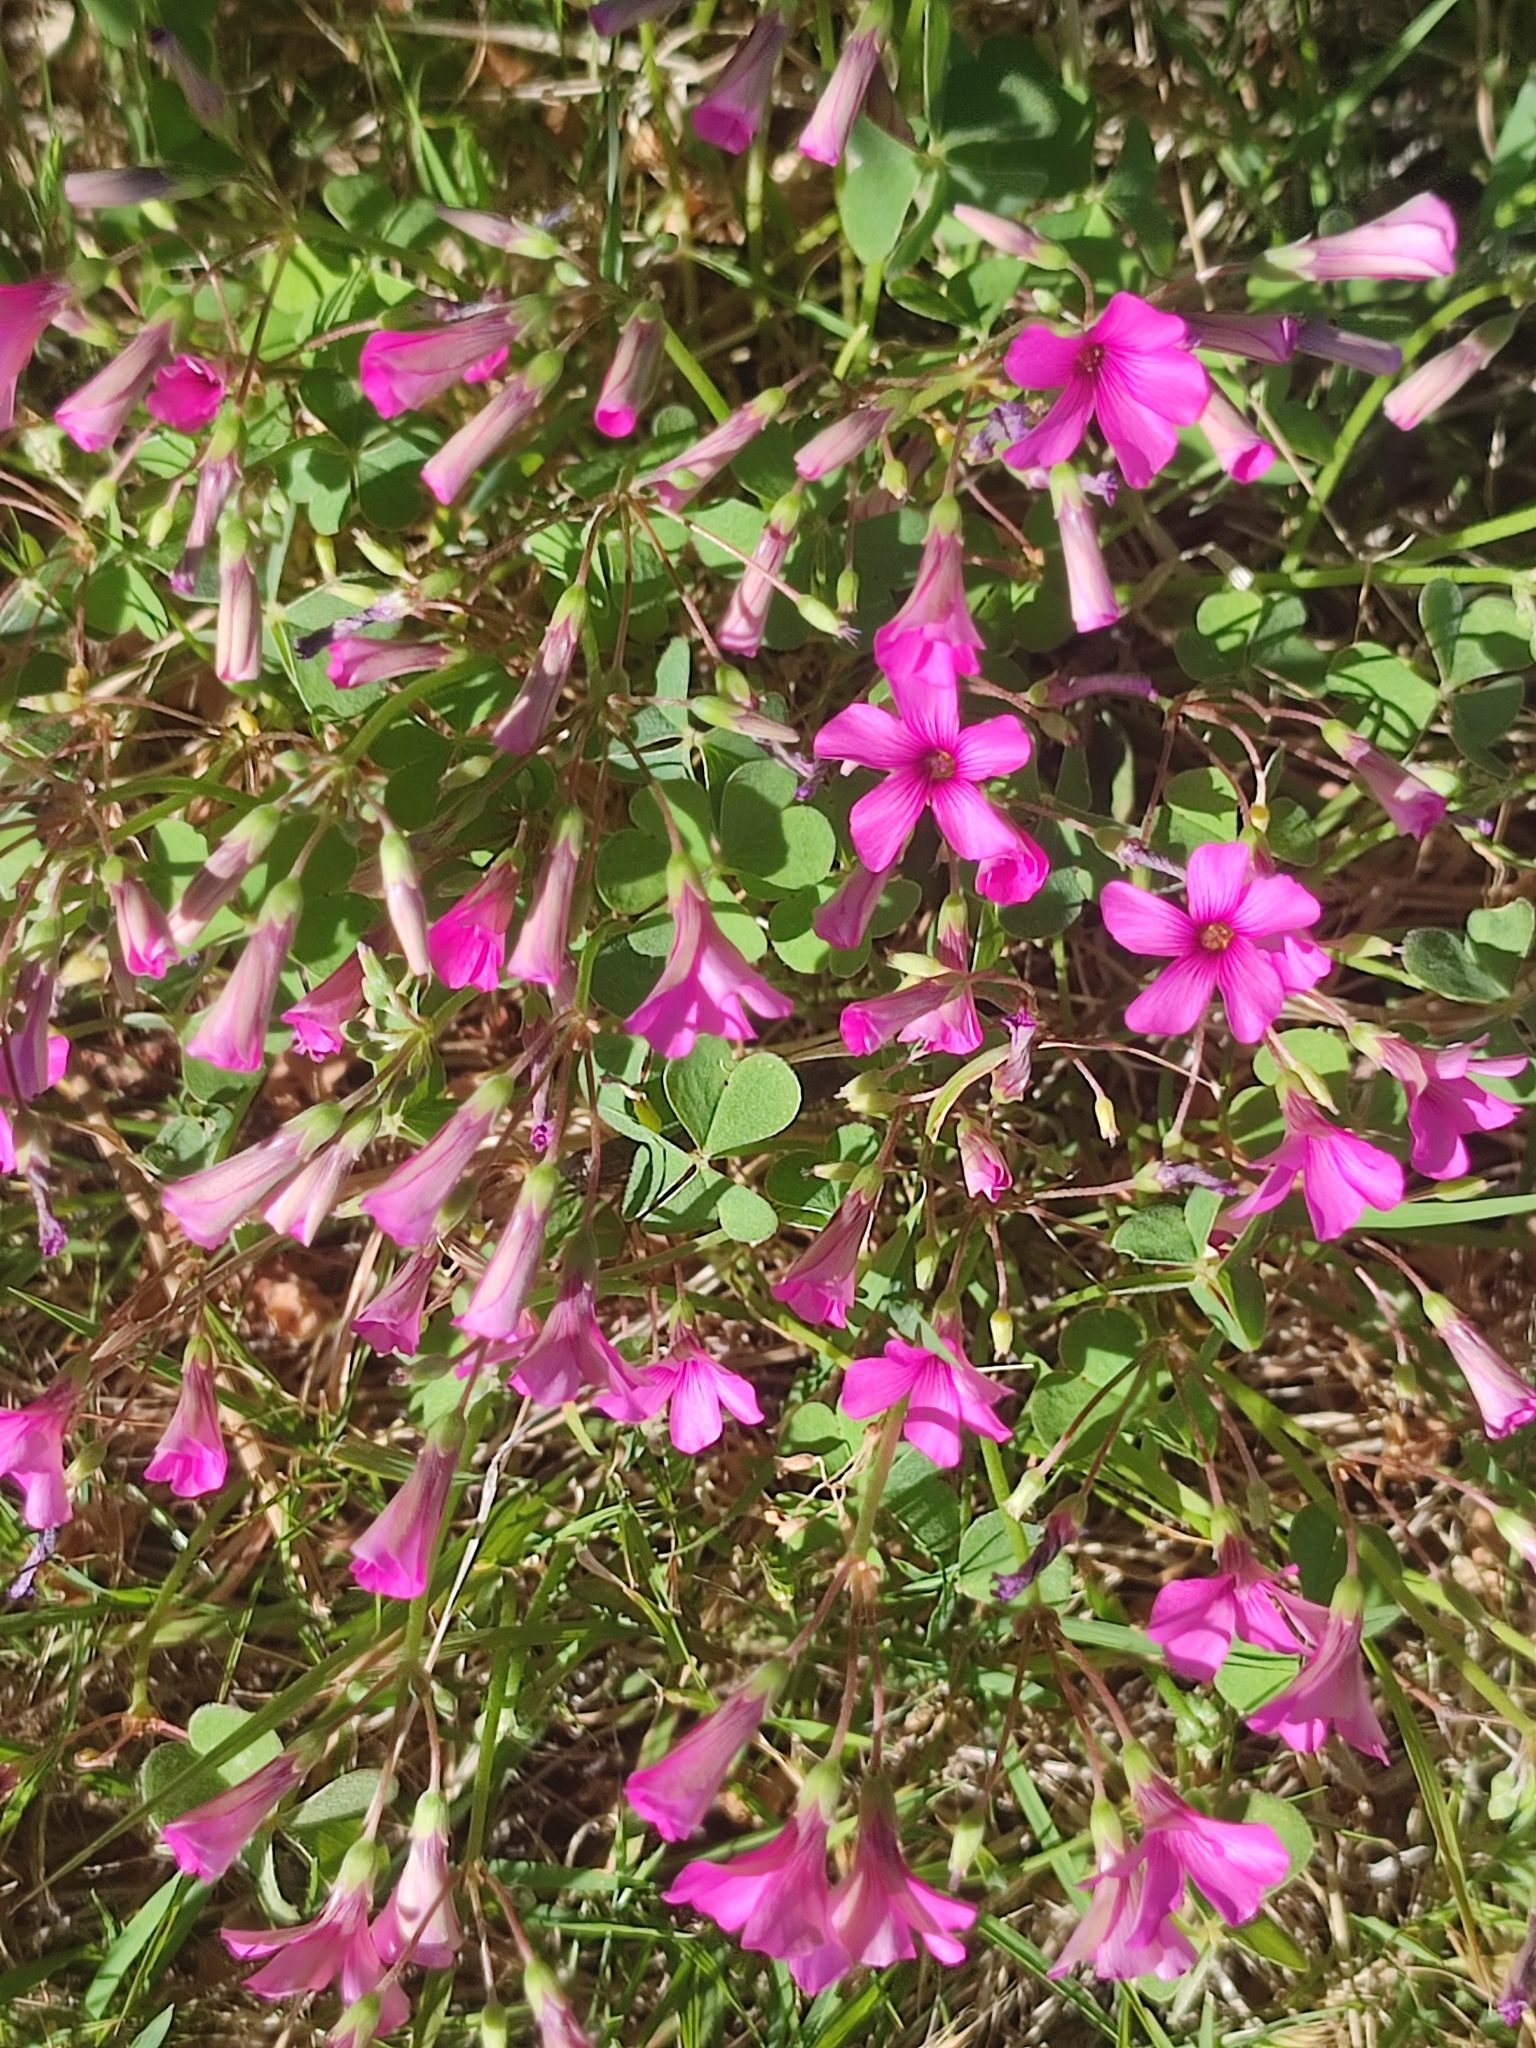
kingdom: Plantae
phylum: Tracheophyta
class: Magnoliopsida
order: Oxalidales
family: Oxalidaceae
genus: Oxalis
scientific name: Oxalis articulata
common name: Pink-sorrel
